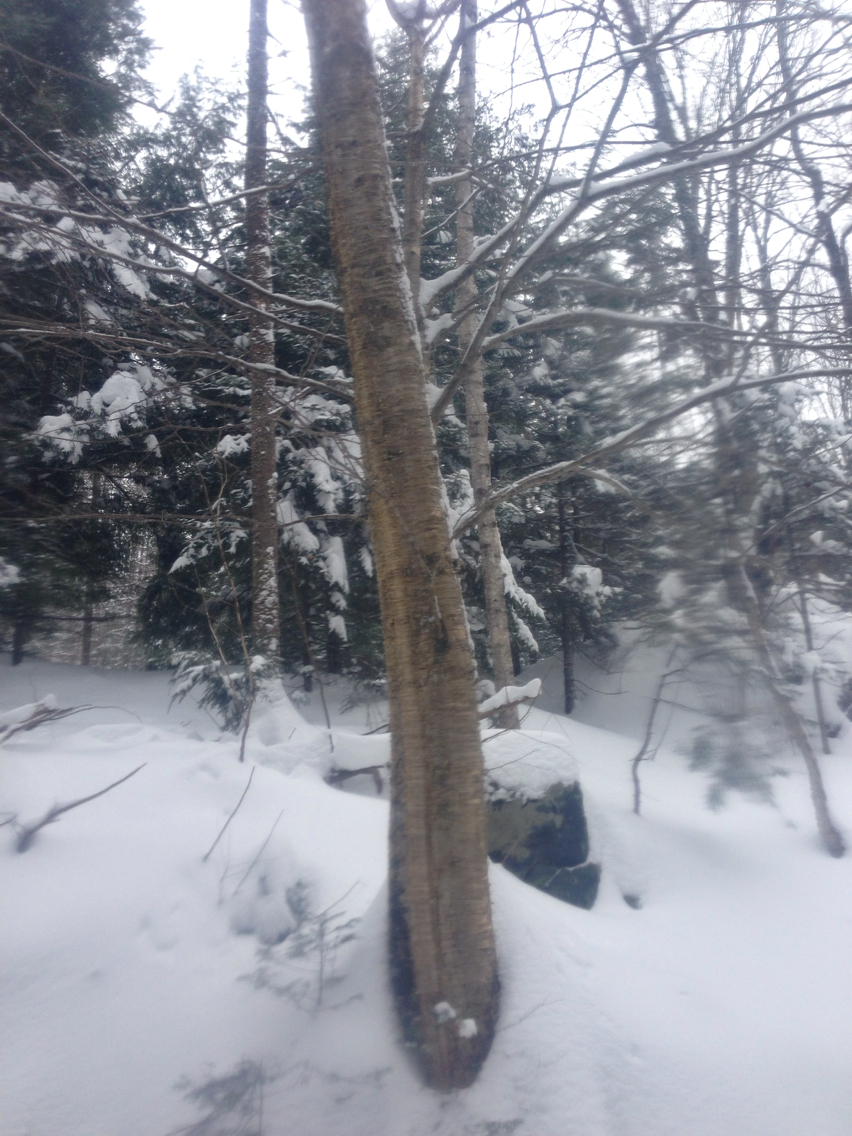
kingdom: Plantae
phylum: Tracheophyta
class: Magnoliopsida
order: Fagales
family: Betulaceae
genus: Betula
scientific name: Betula alleghaniensis
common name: Yellow birch
